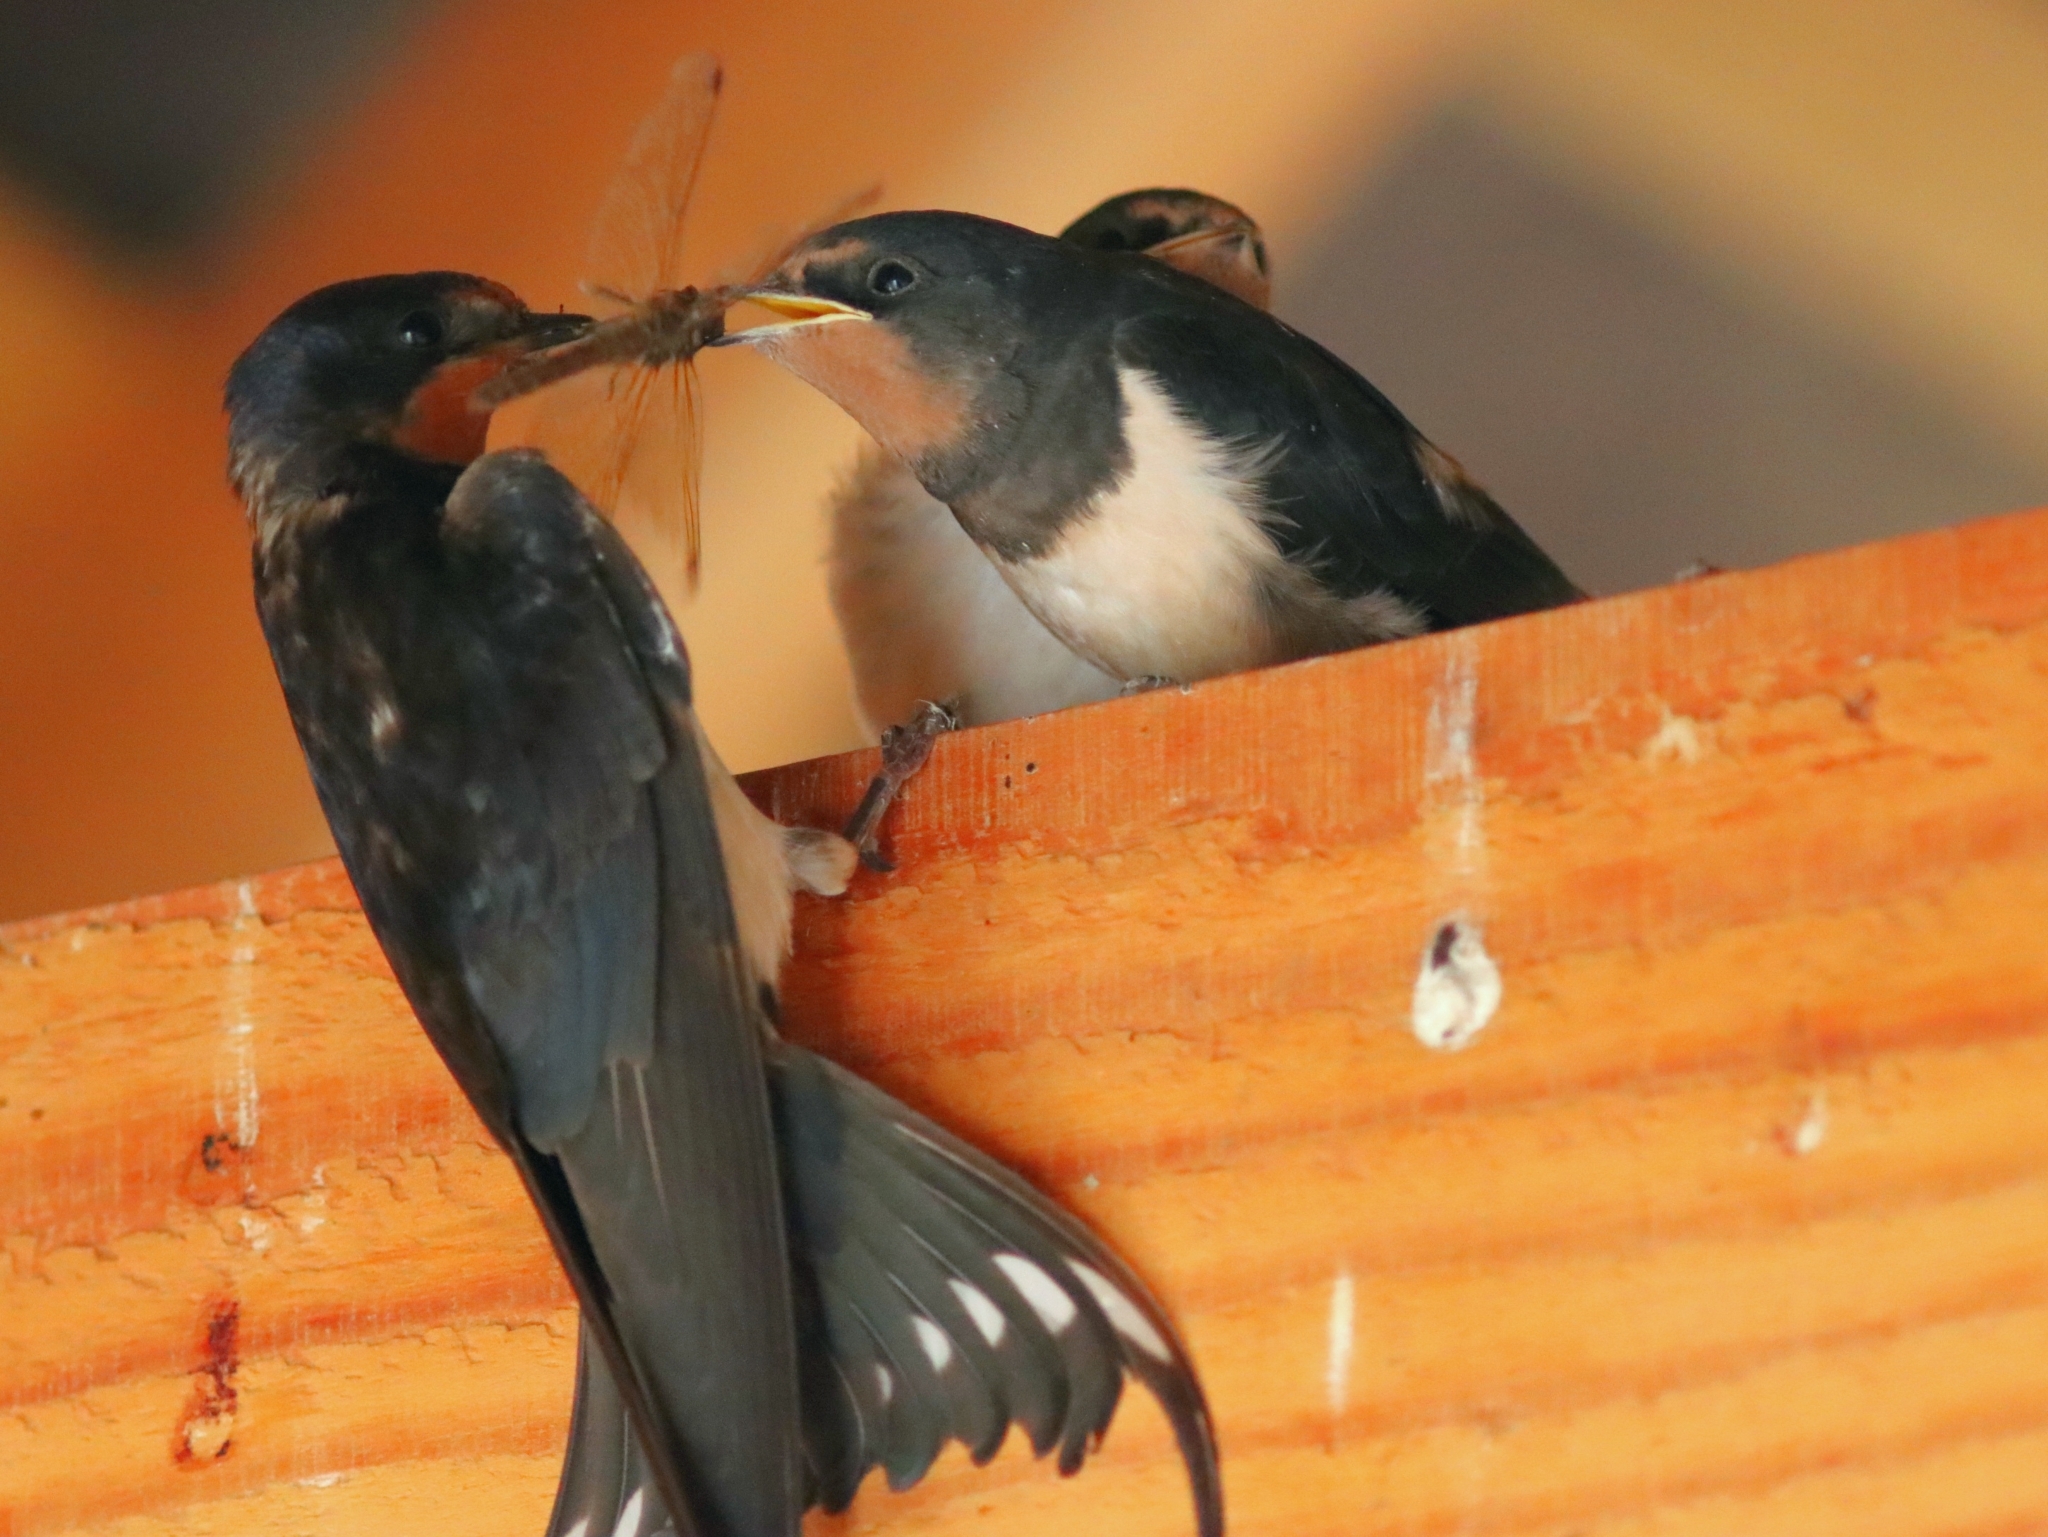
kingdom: Animalia
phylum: Chordata
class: Aves
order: Passeriformes
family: Hirundinidae
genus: Hirundo
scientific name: Hirundo rustica
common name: Barn swallow
